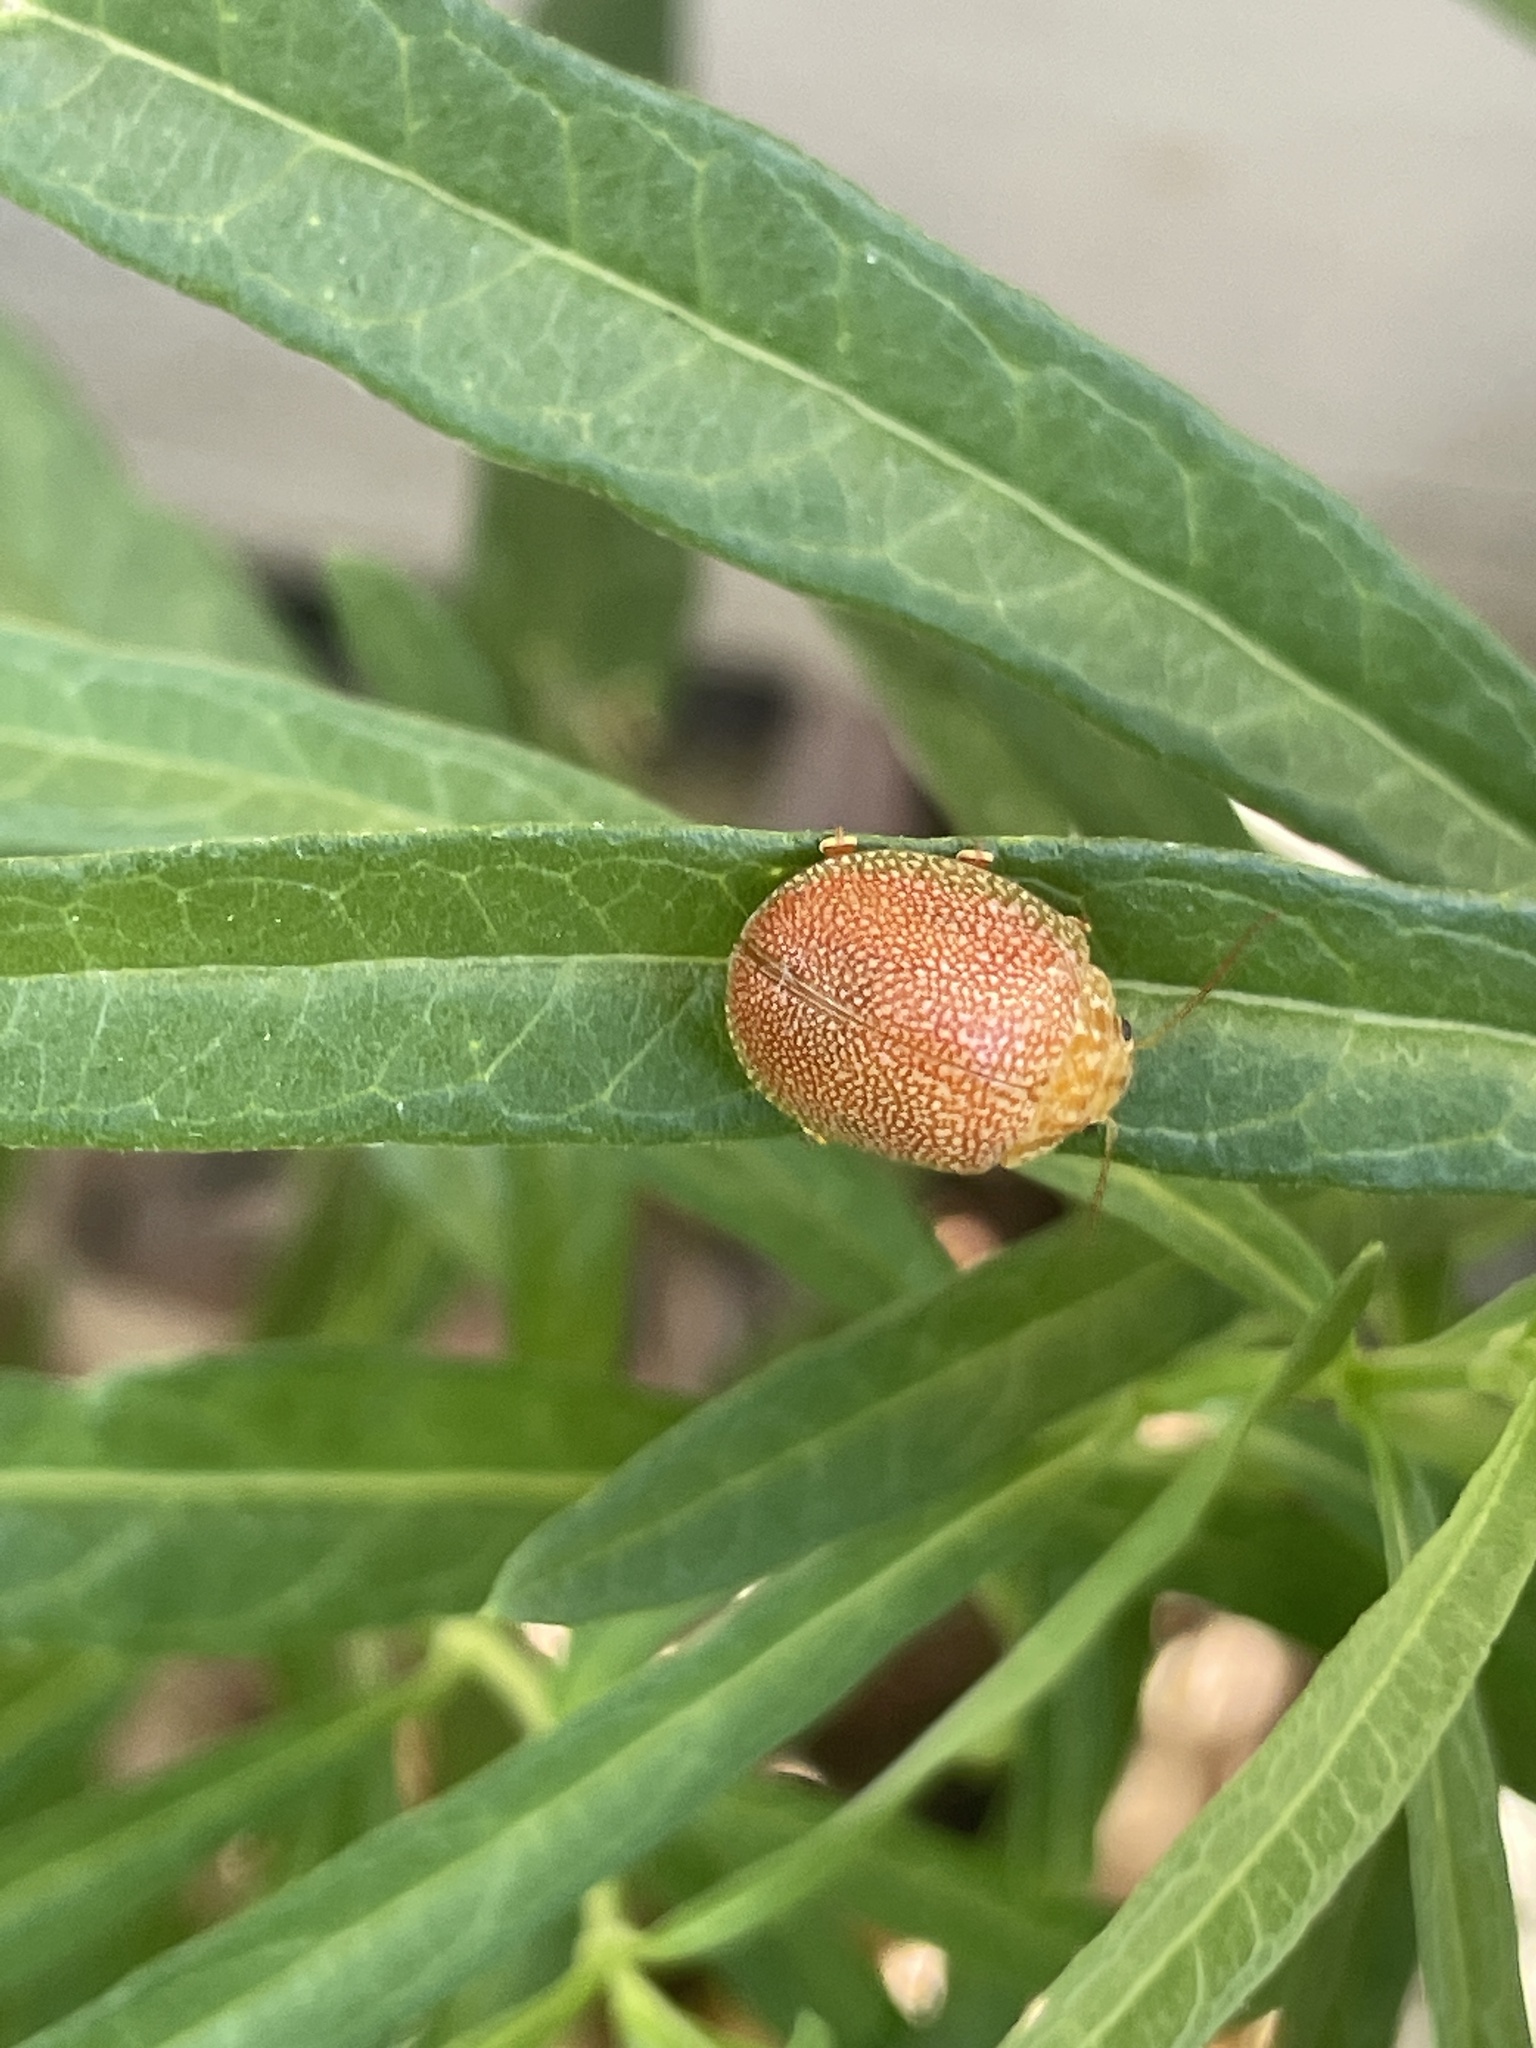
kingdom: Animalia
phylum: Arthropoda
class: Insecta
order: Coleoptera
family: Chrysomelidae
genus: Paropsis
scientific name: Paropsis
